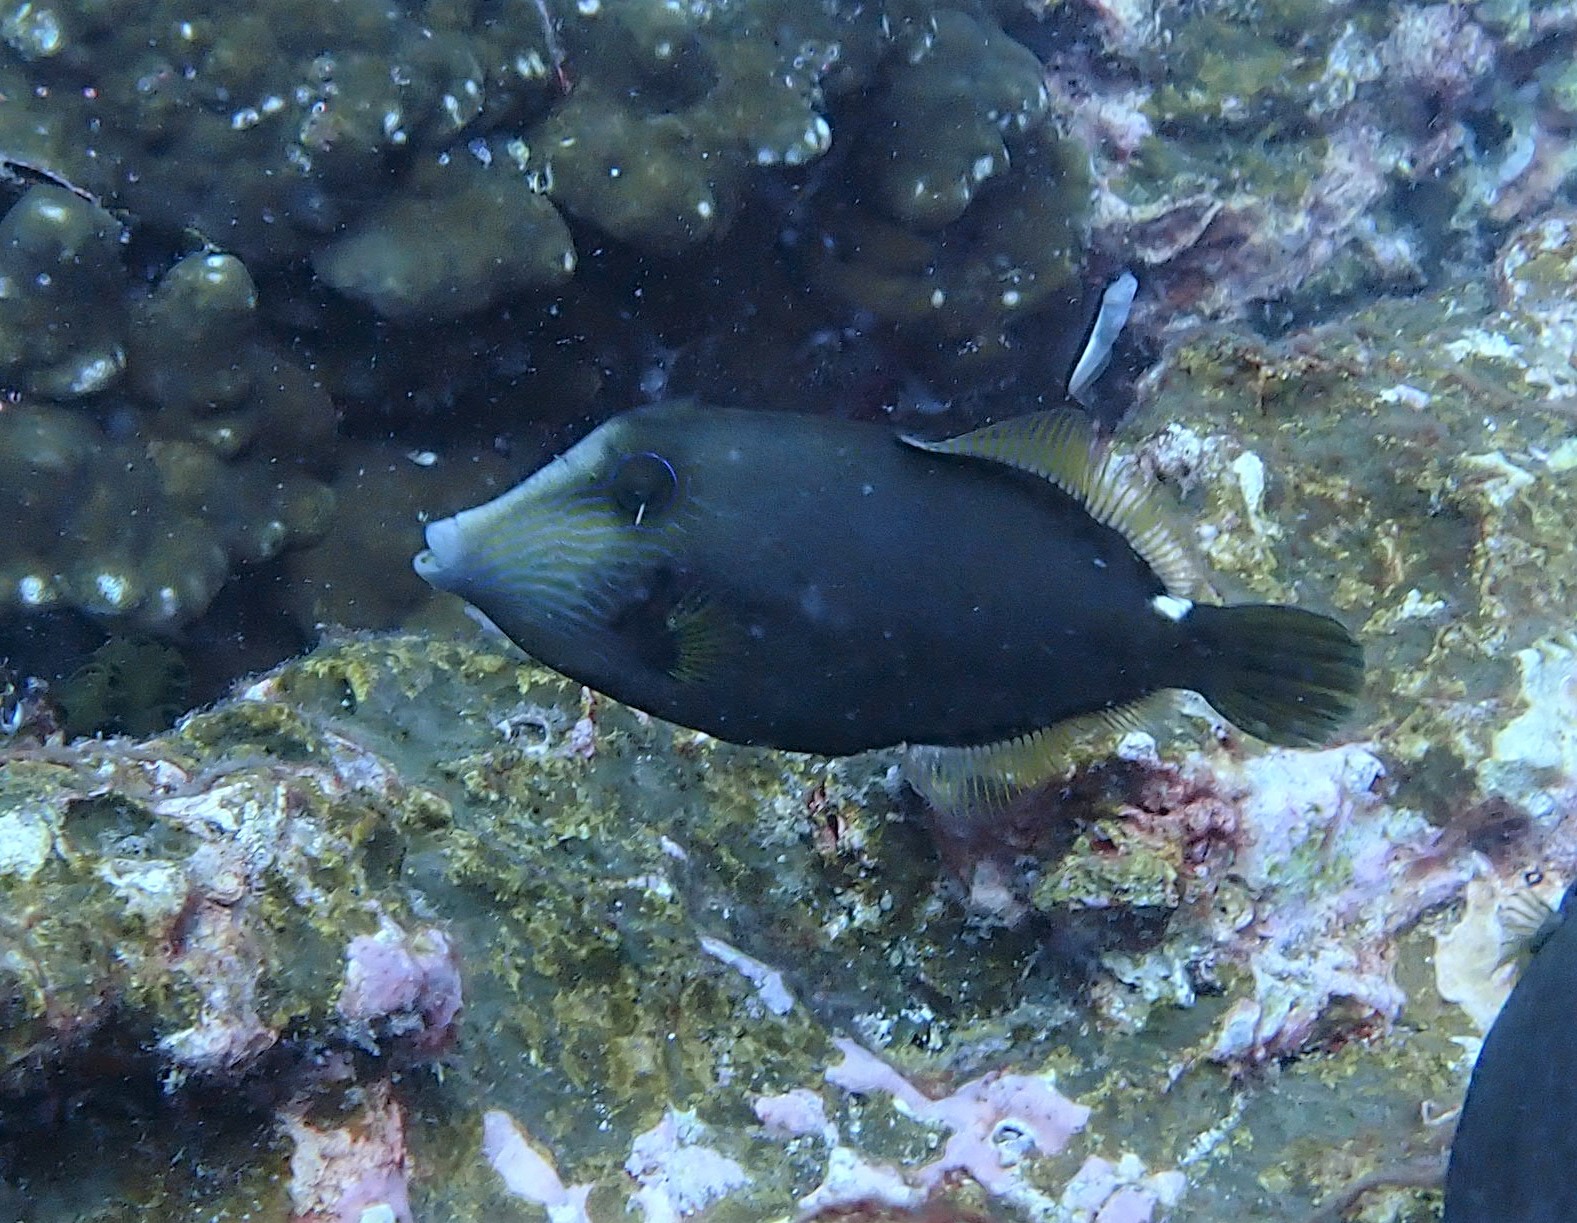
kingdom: Animalia
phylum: Chordata
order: Tetraodontiformes
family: Monacanthidae
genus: Cantherhines
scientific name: Cantherhines pardalis
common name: Honeycomb filefish
